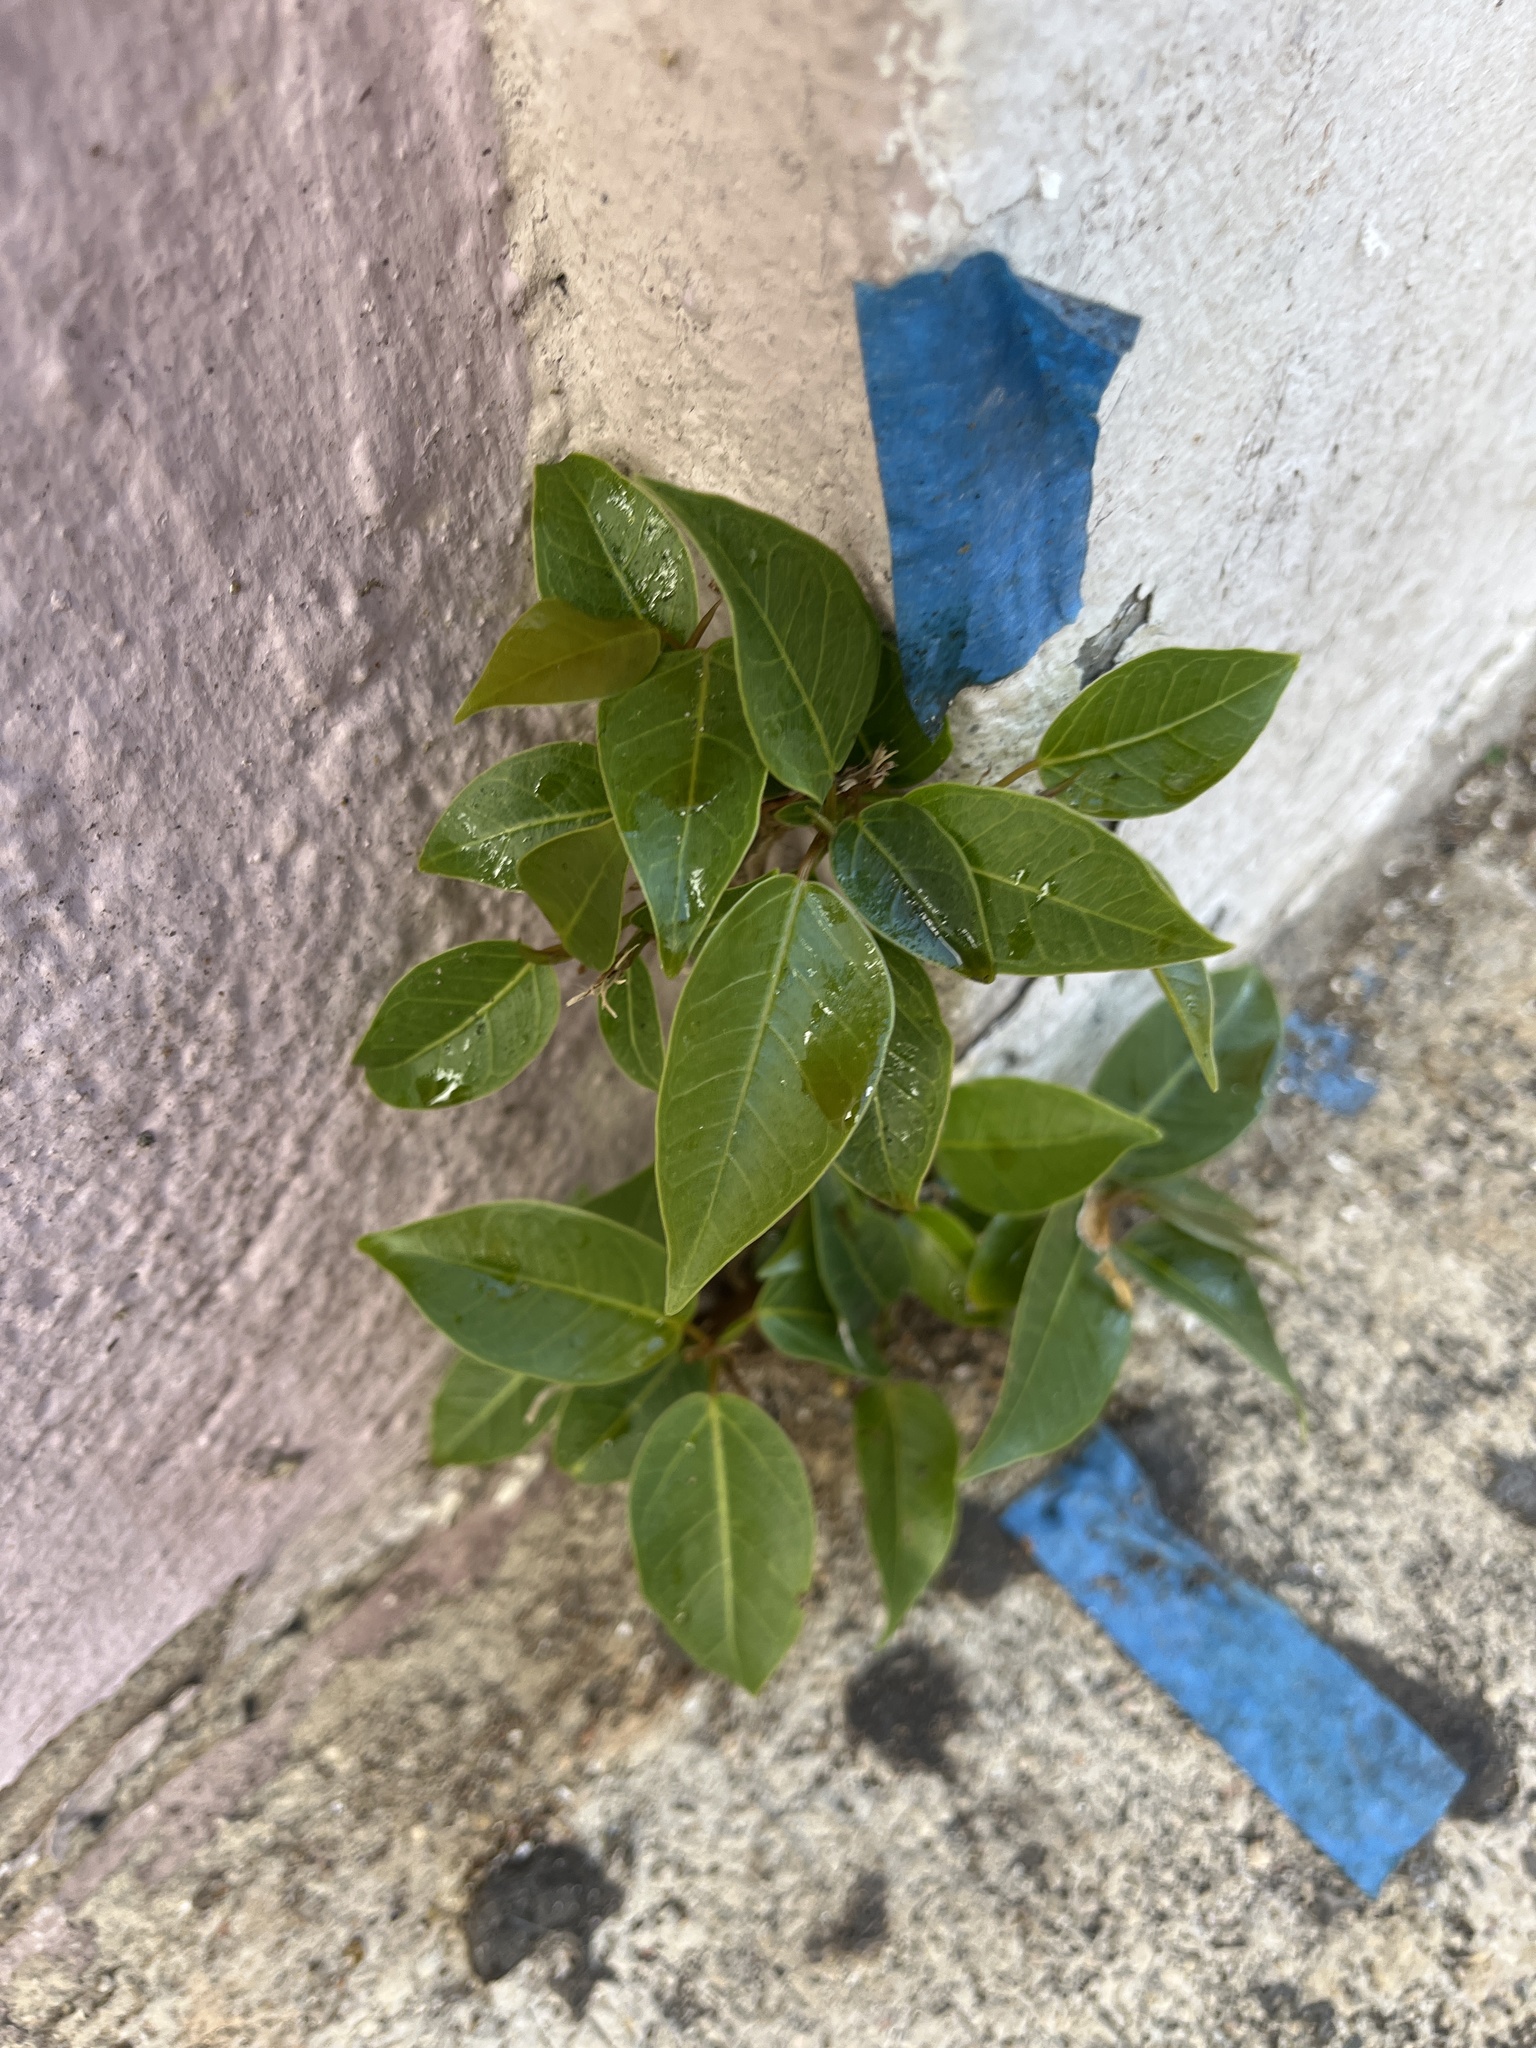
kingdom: Plantae
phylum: Tracheophyta
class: Magnoliopsida
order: Rosales
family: Moraceae
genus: Ficus
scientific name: Ficus citrifolia
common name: Strangler fig
